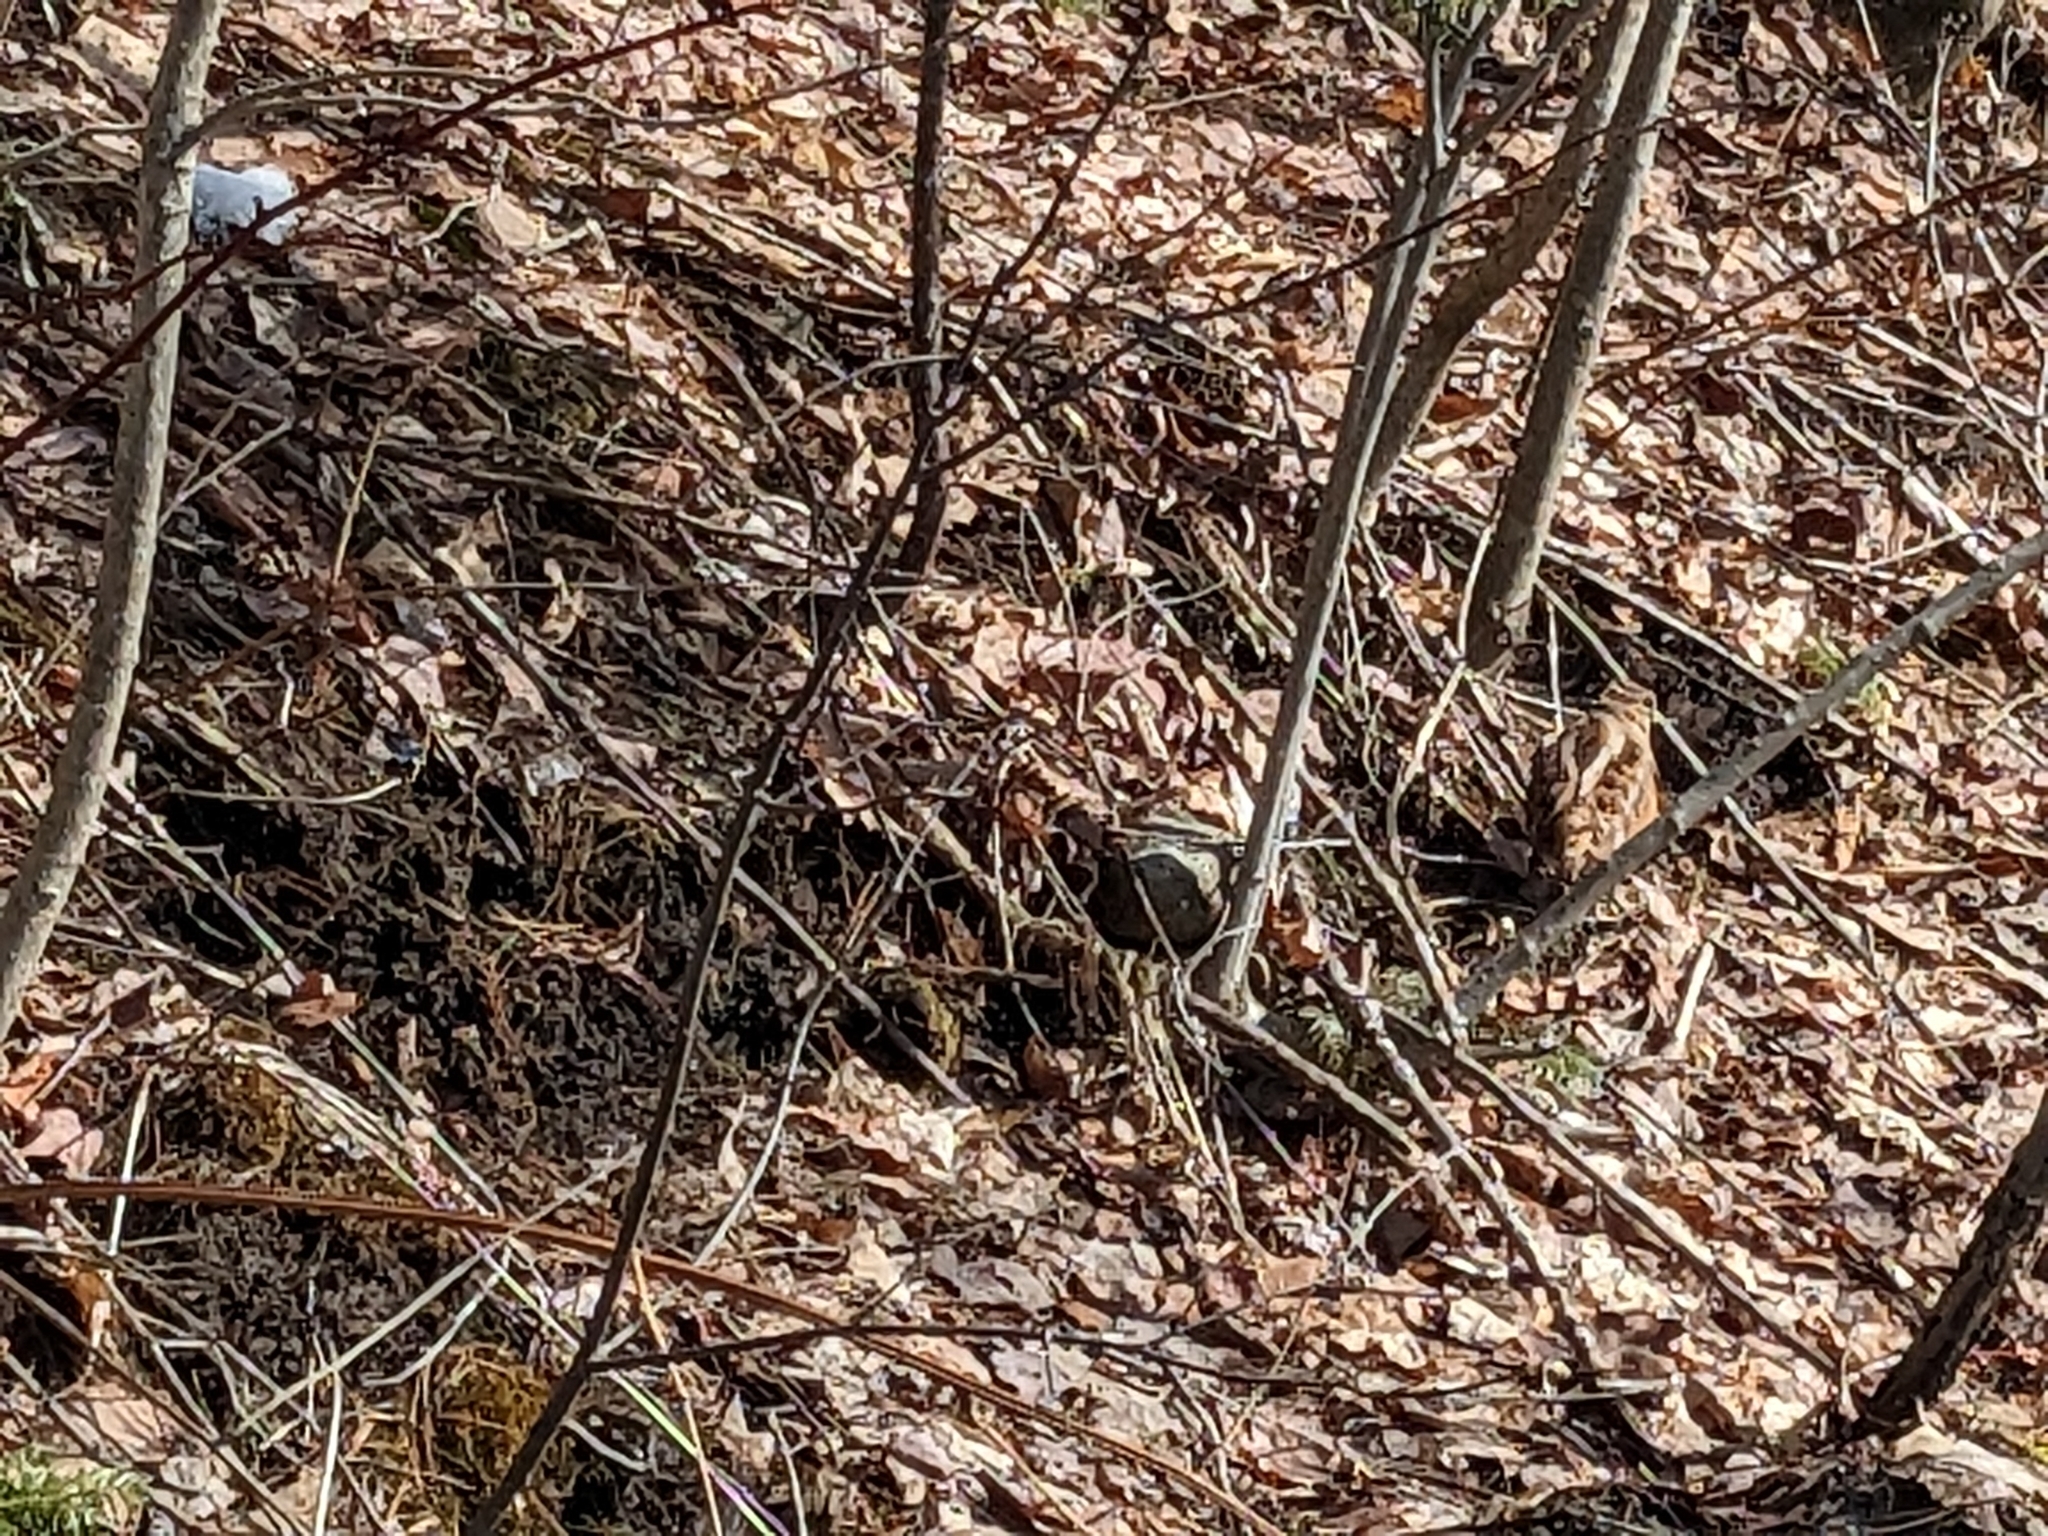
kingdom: Animalia
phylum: Chordata
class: Aves
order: Charadriiformes
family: Scolopacidae
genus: Scolopax
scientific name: Scolopax minor
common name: American woodcock
